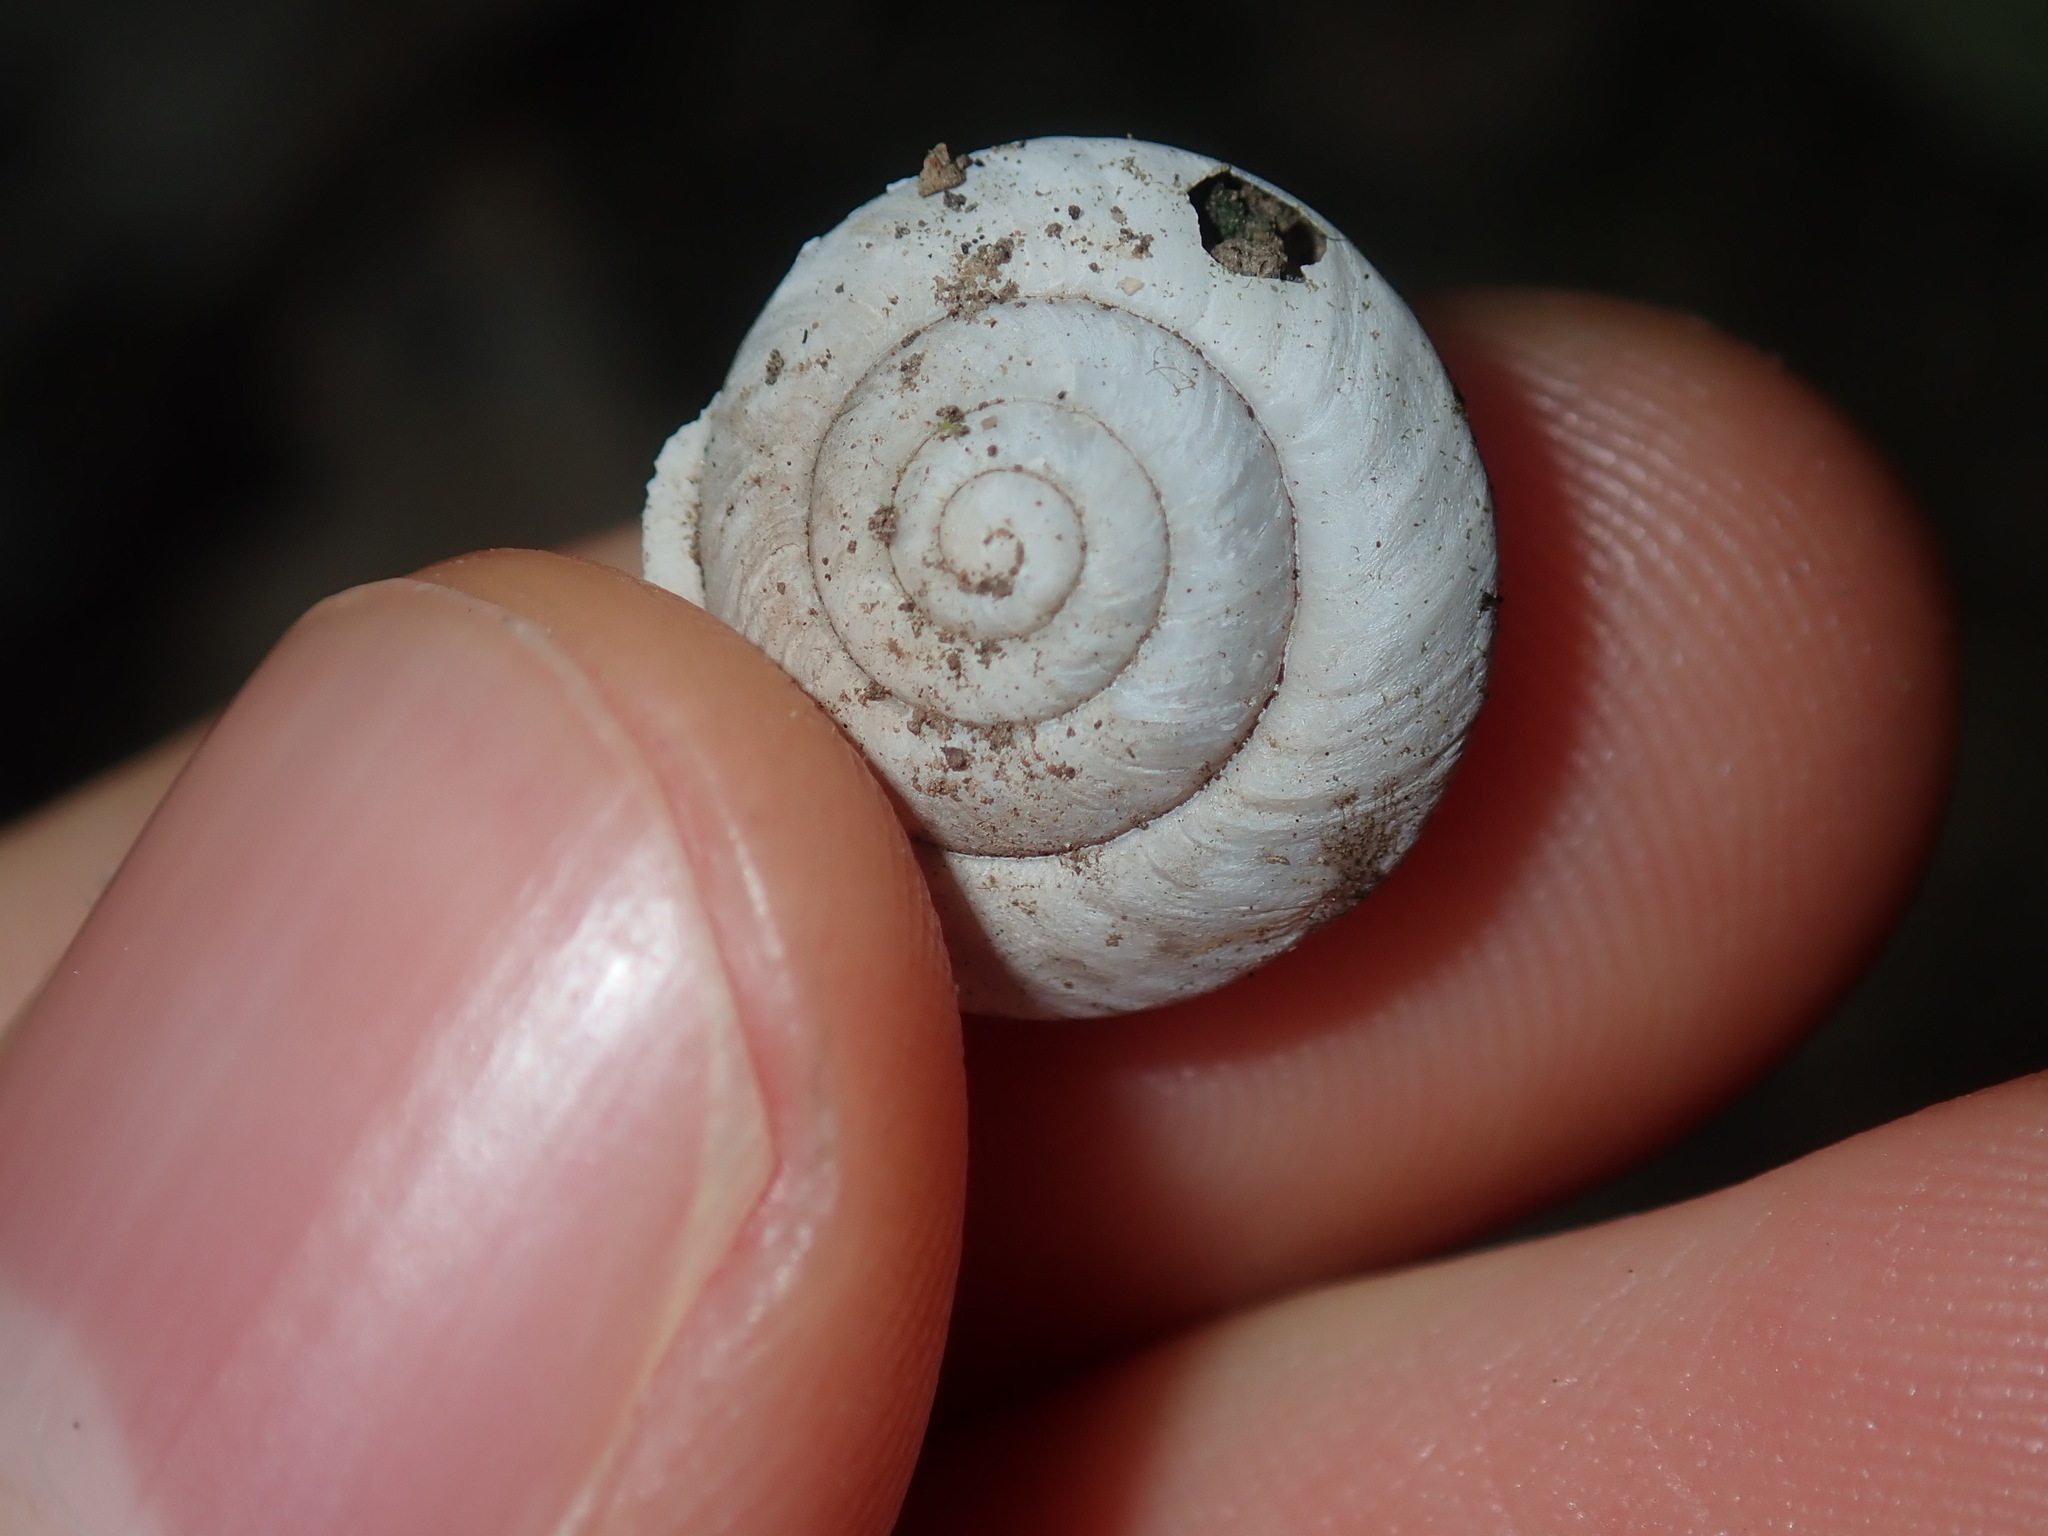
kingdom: Animalia
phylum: Mollusca
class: Gastropoda
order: Stylommatophora
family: Camaenidae
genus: Sauroconcha
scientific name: Sauroconcha sheai
